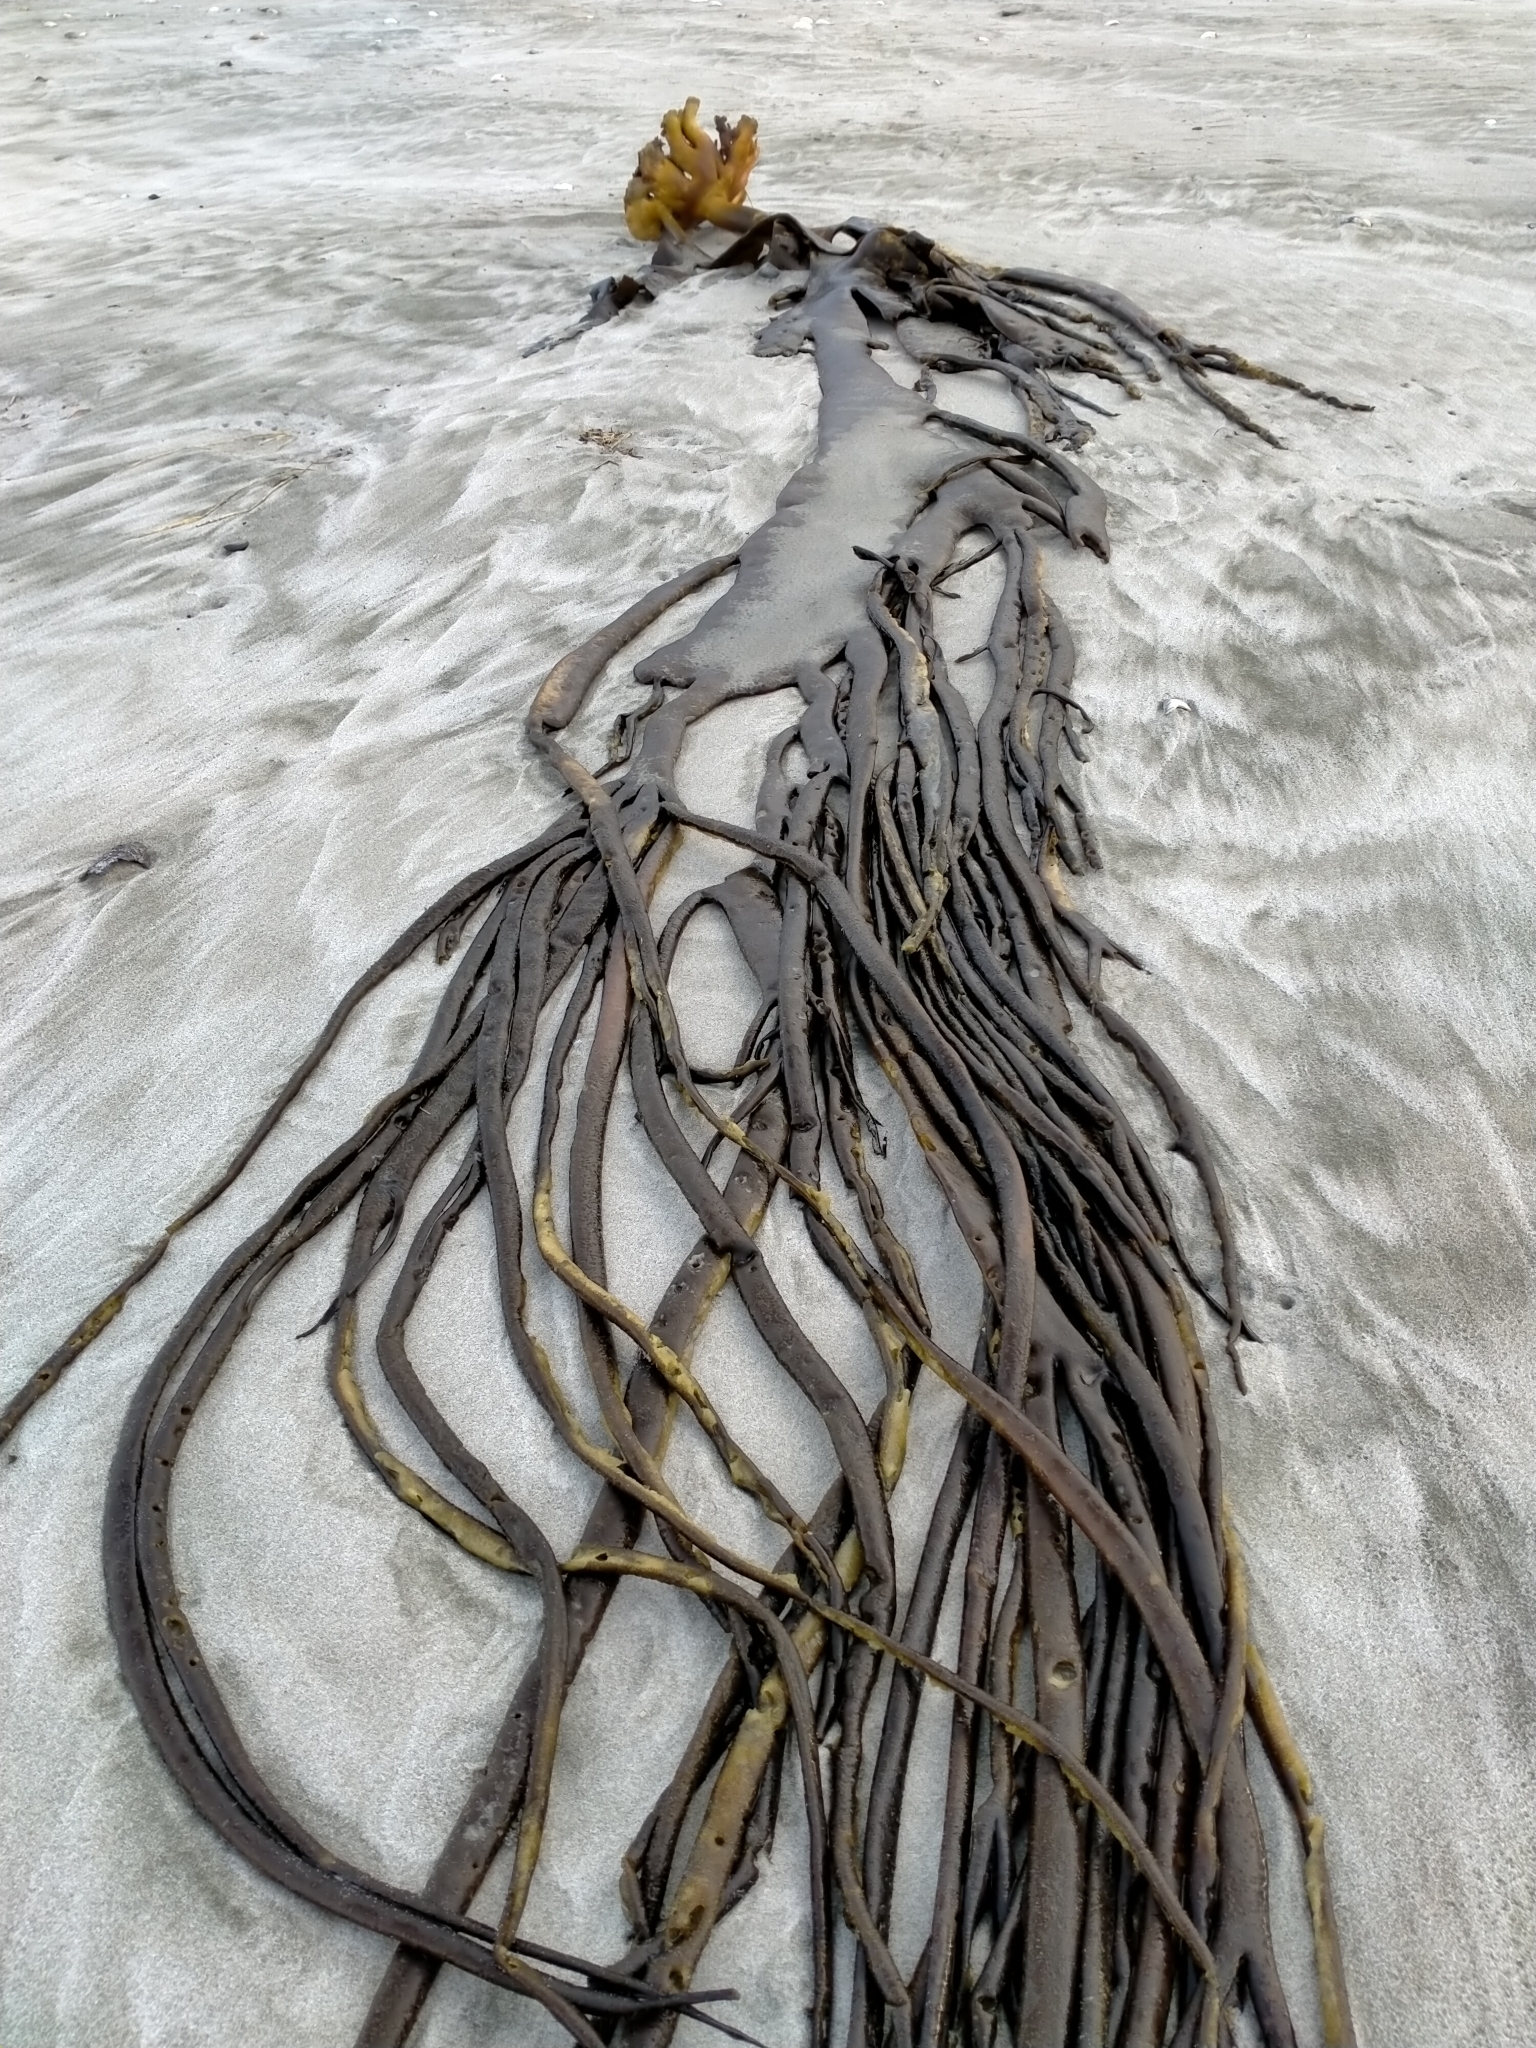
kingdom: Chromista
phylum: Ochrophyta
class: Phaeophyceae
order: Fucales
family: Durvillaeaceae
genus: Durvillaea
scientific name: Durvillaea antarctica
